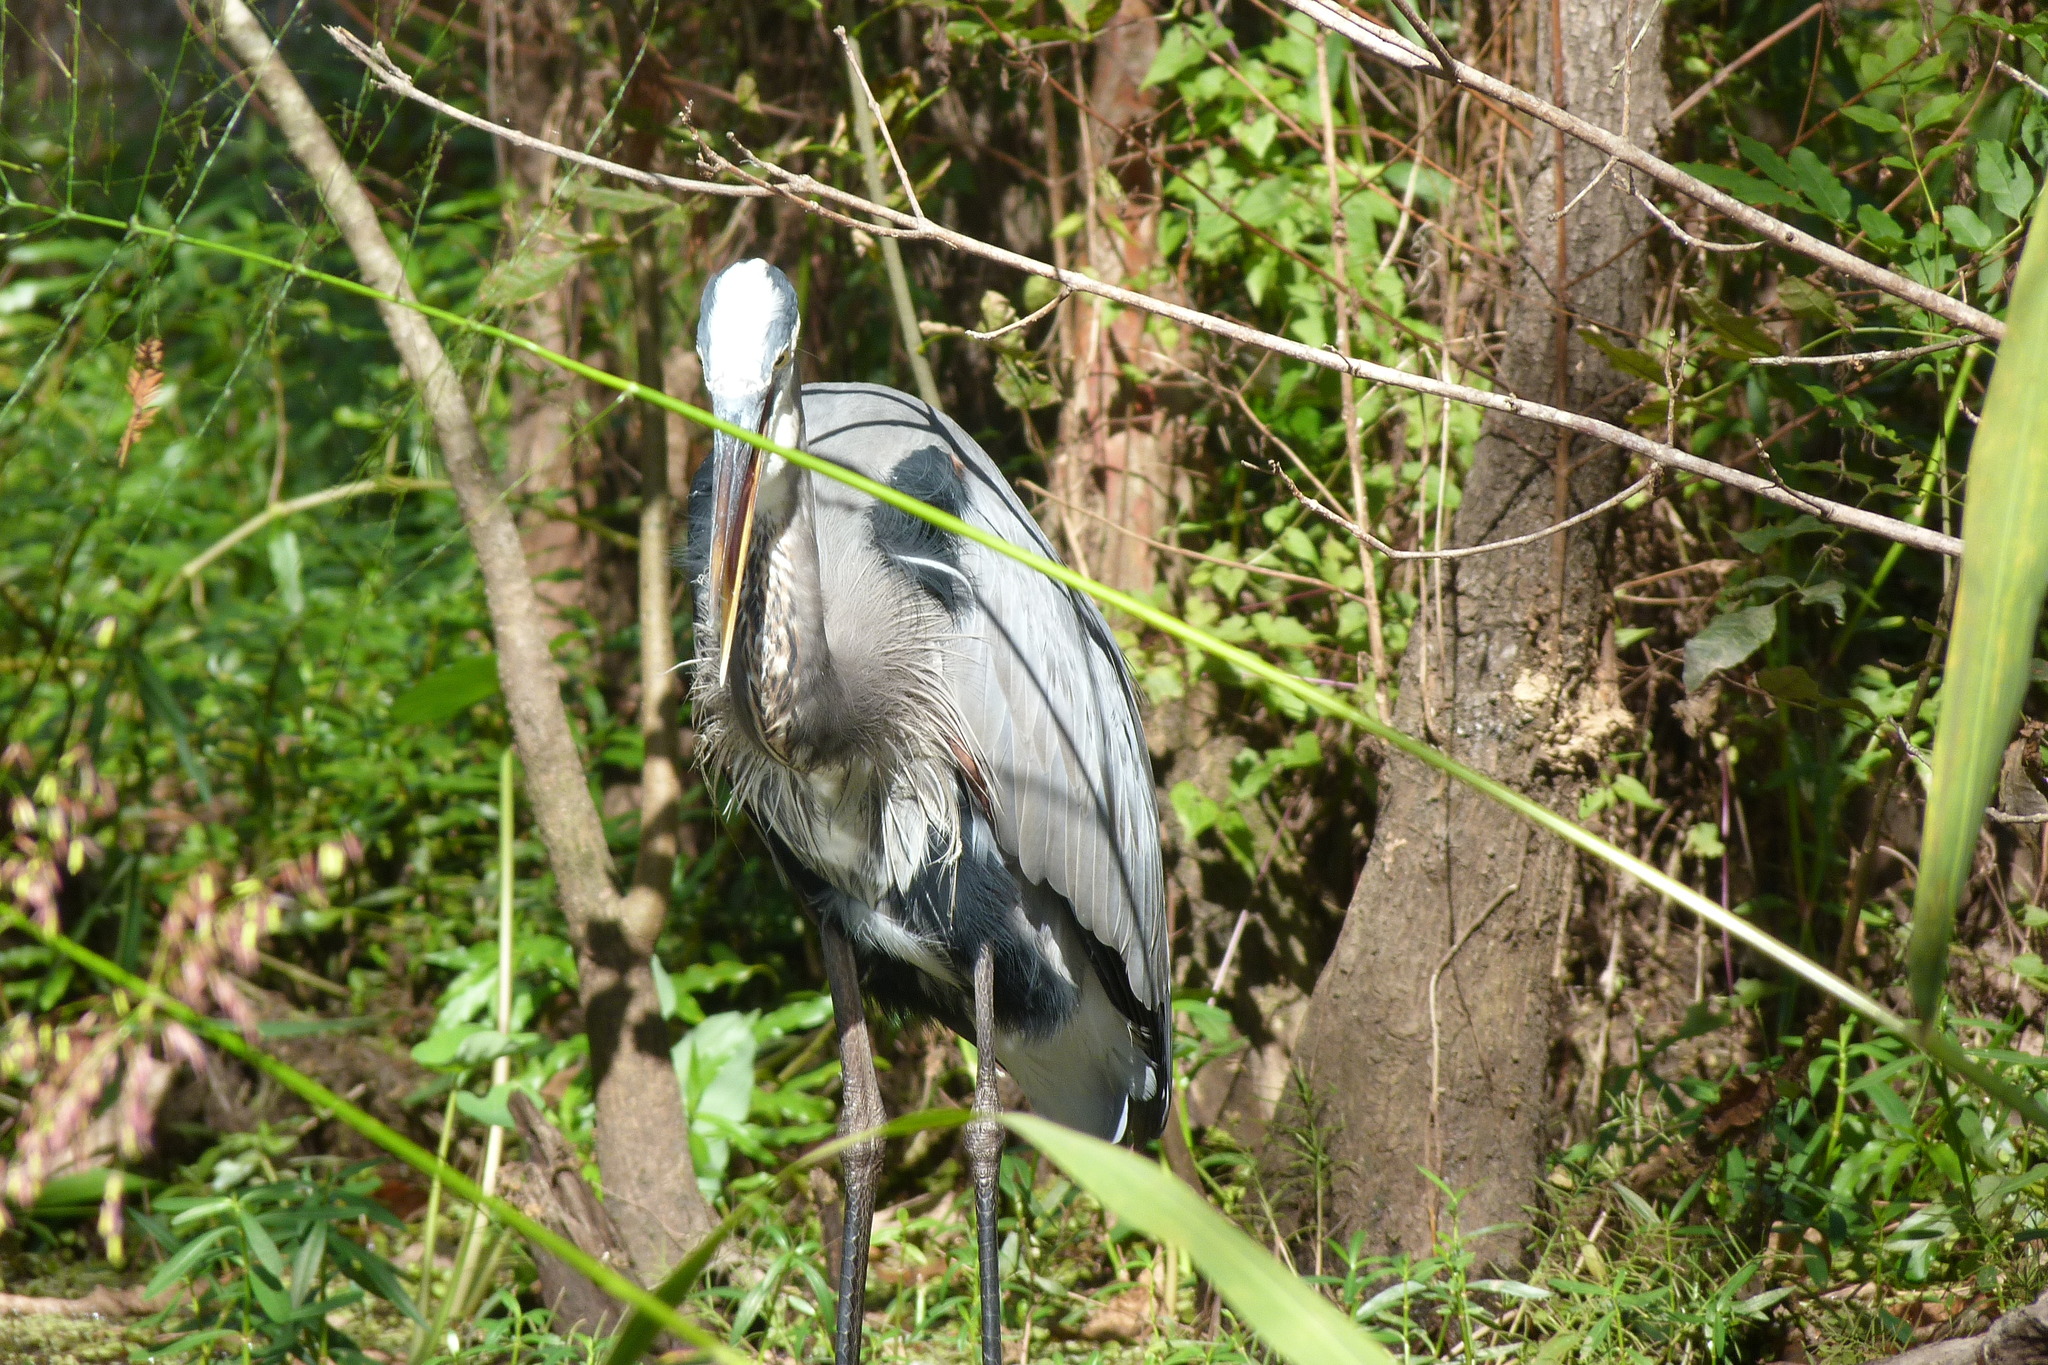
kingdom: Animalia
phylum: Chordata
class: Aves
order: Pelecaniformes
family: Ardeidae
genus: Ardea
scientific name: Ardea herodias
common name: Great blue heron
